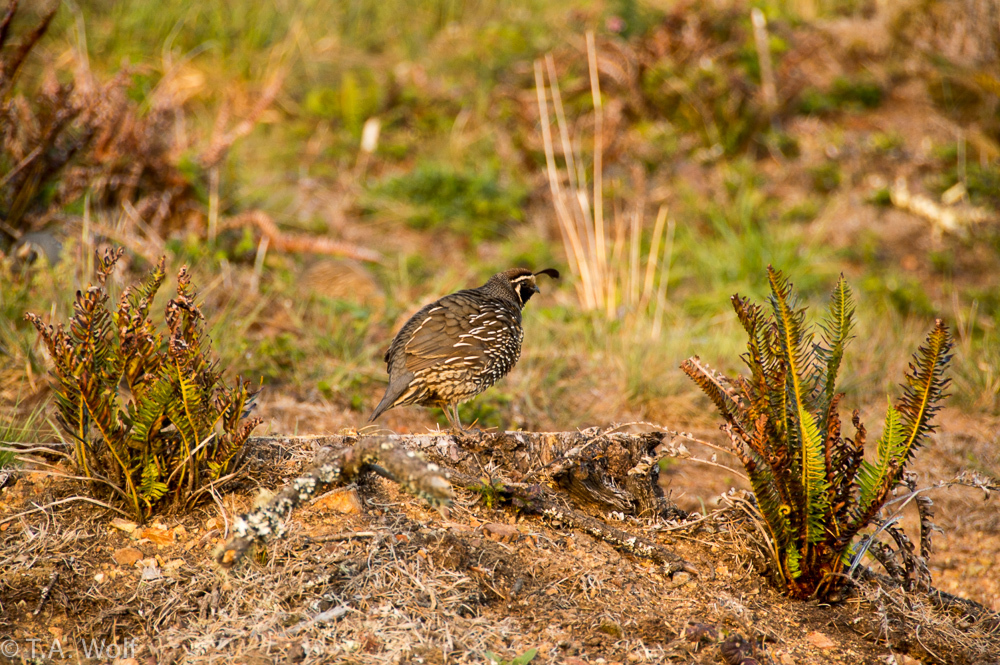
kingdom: Animalia
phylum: Chordata
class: Aves
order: Galliformes
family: Odontophoridae
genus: Callipepla
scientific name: Callipepla californica
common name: California quail
